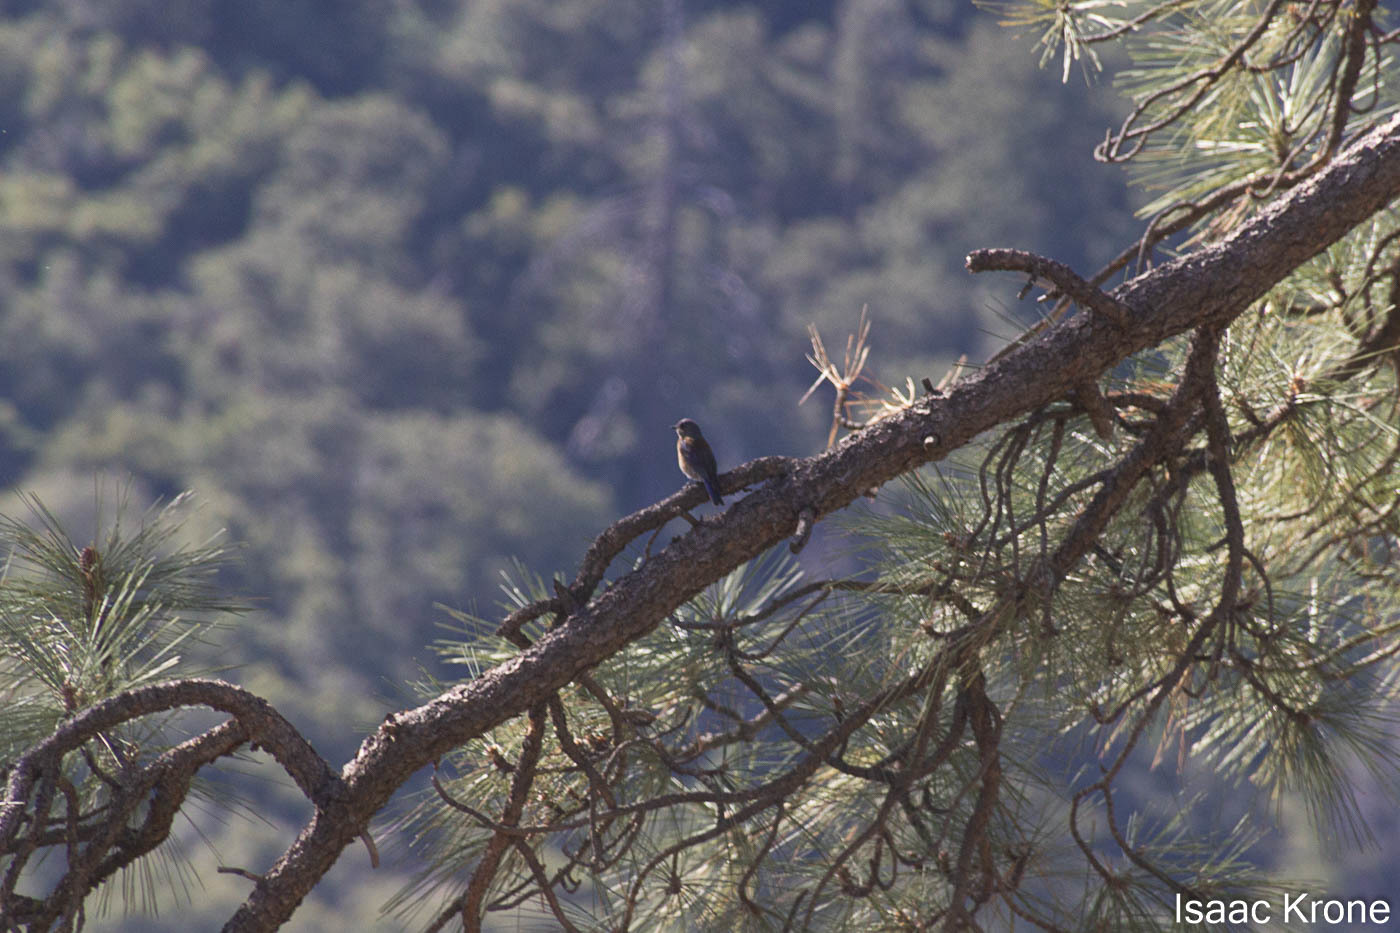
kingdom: Animalia
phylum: Chordata
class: Aves
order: Passeriformes
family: Turdidae
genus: Sialia
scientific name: Sialia mexicana
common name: Western bluebird
